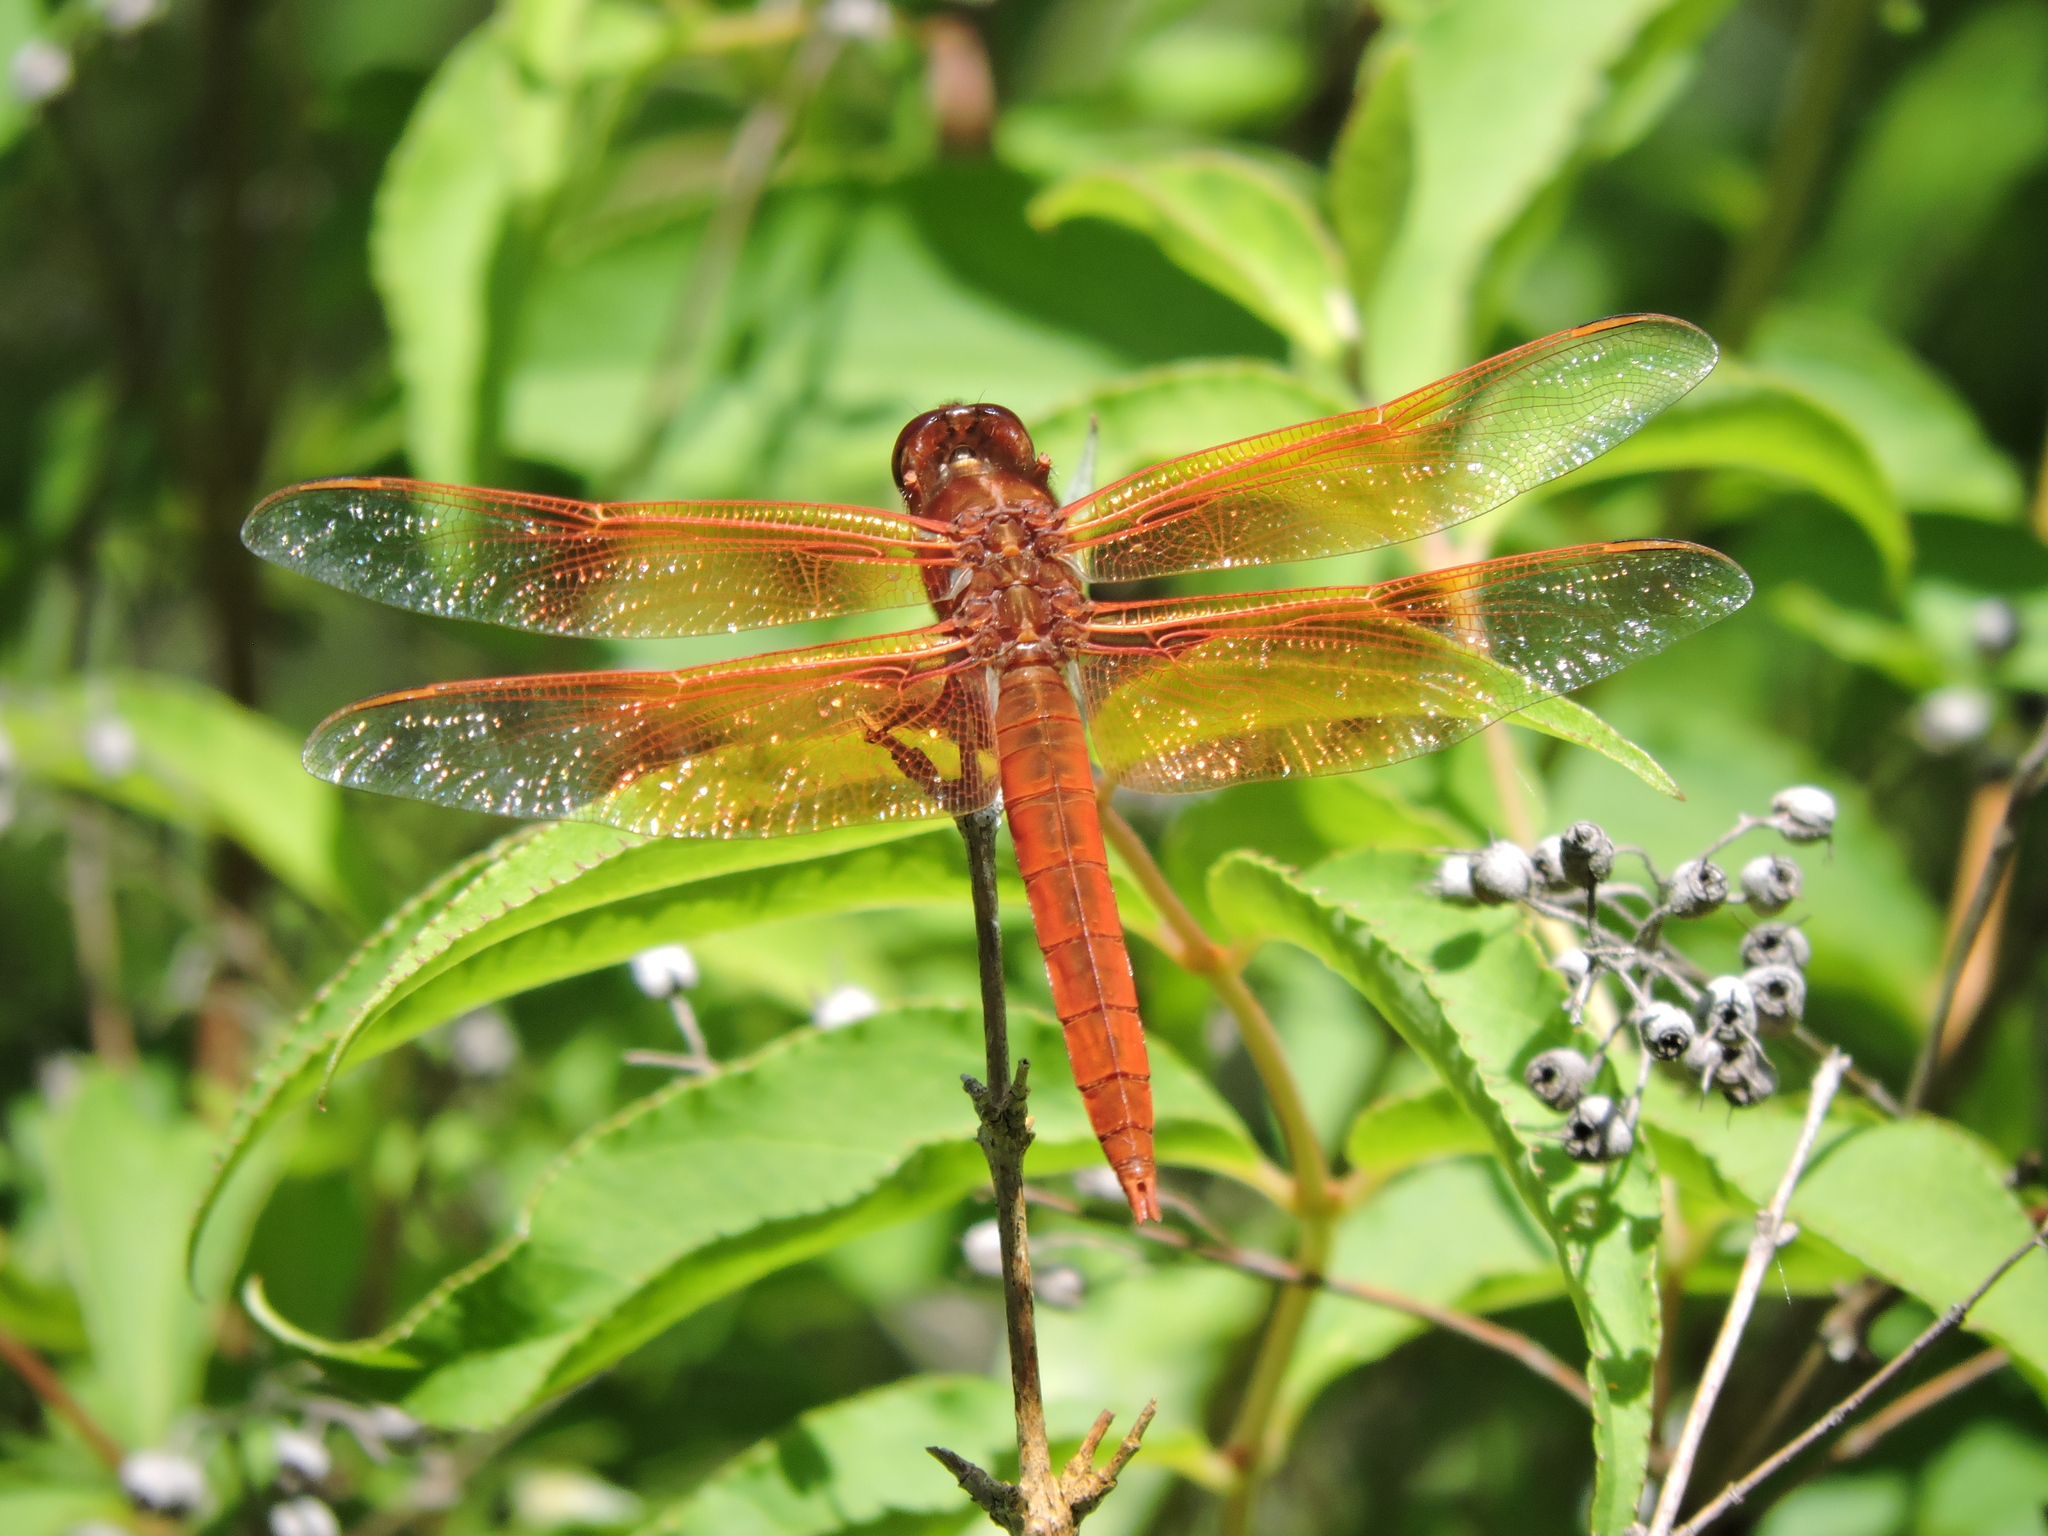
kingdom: Animalia
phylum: Arthropoda
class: Insecta
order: Odonata
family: Libellulidae
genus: Libellula
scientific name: Libellula saturata
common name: Flame skimmer
